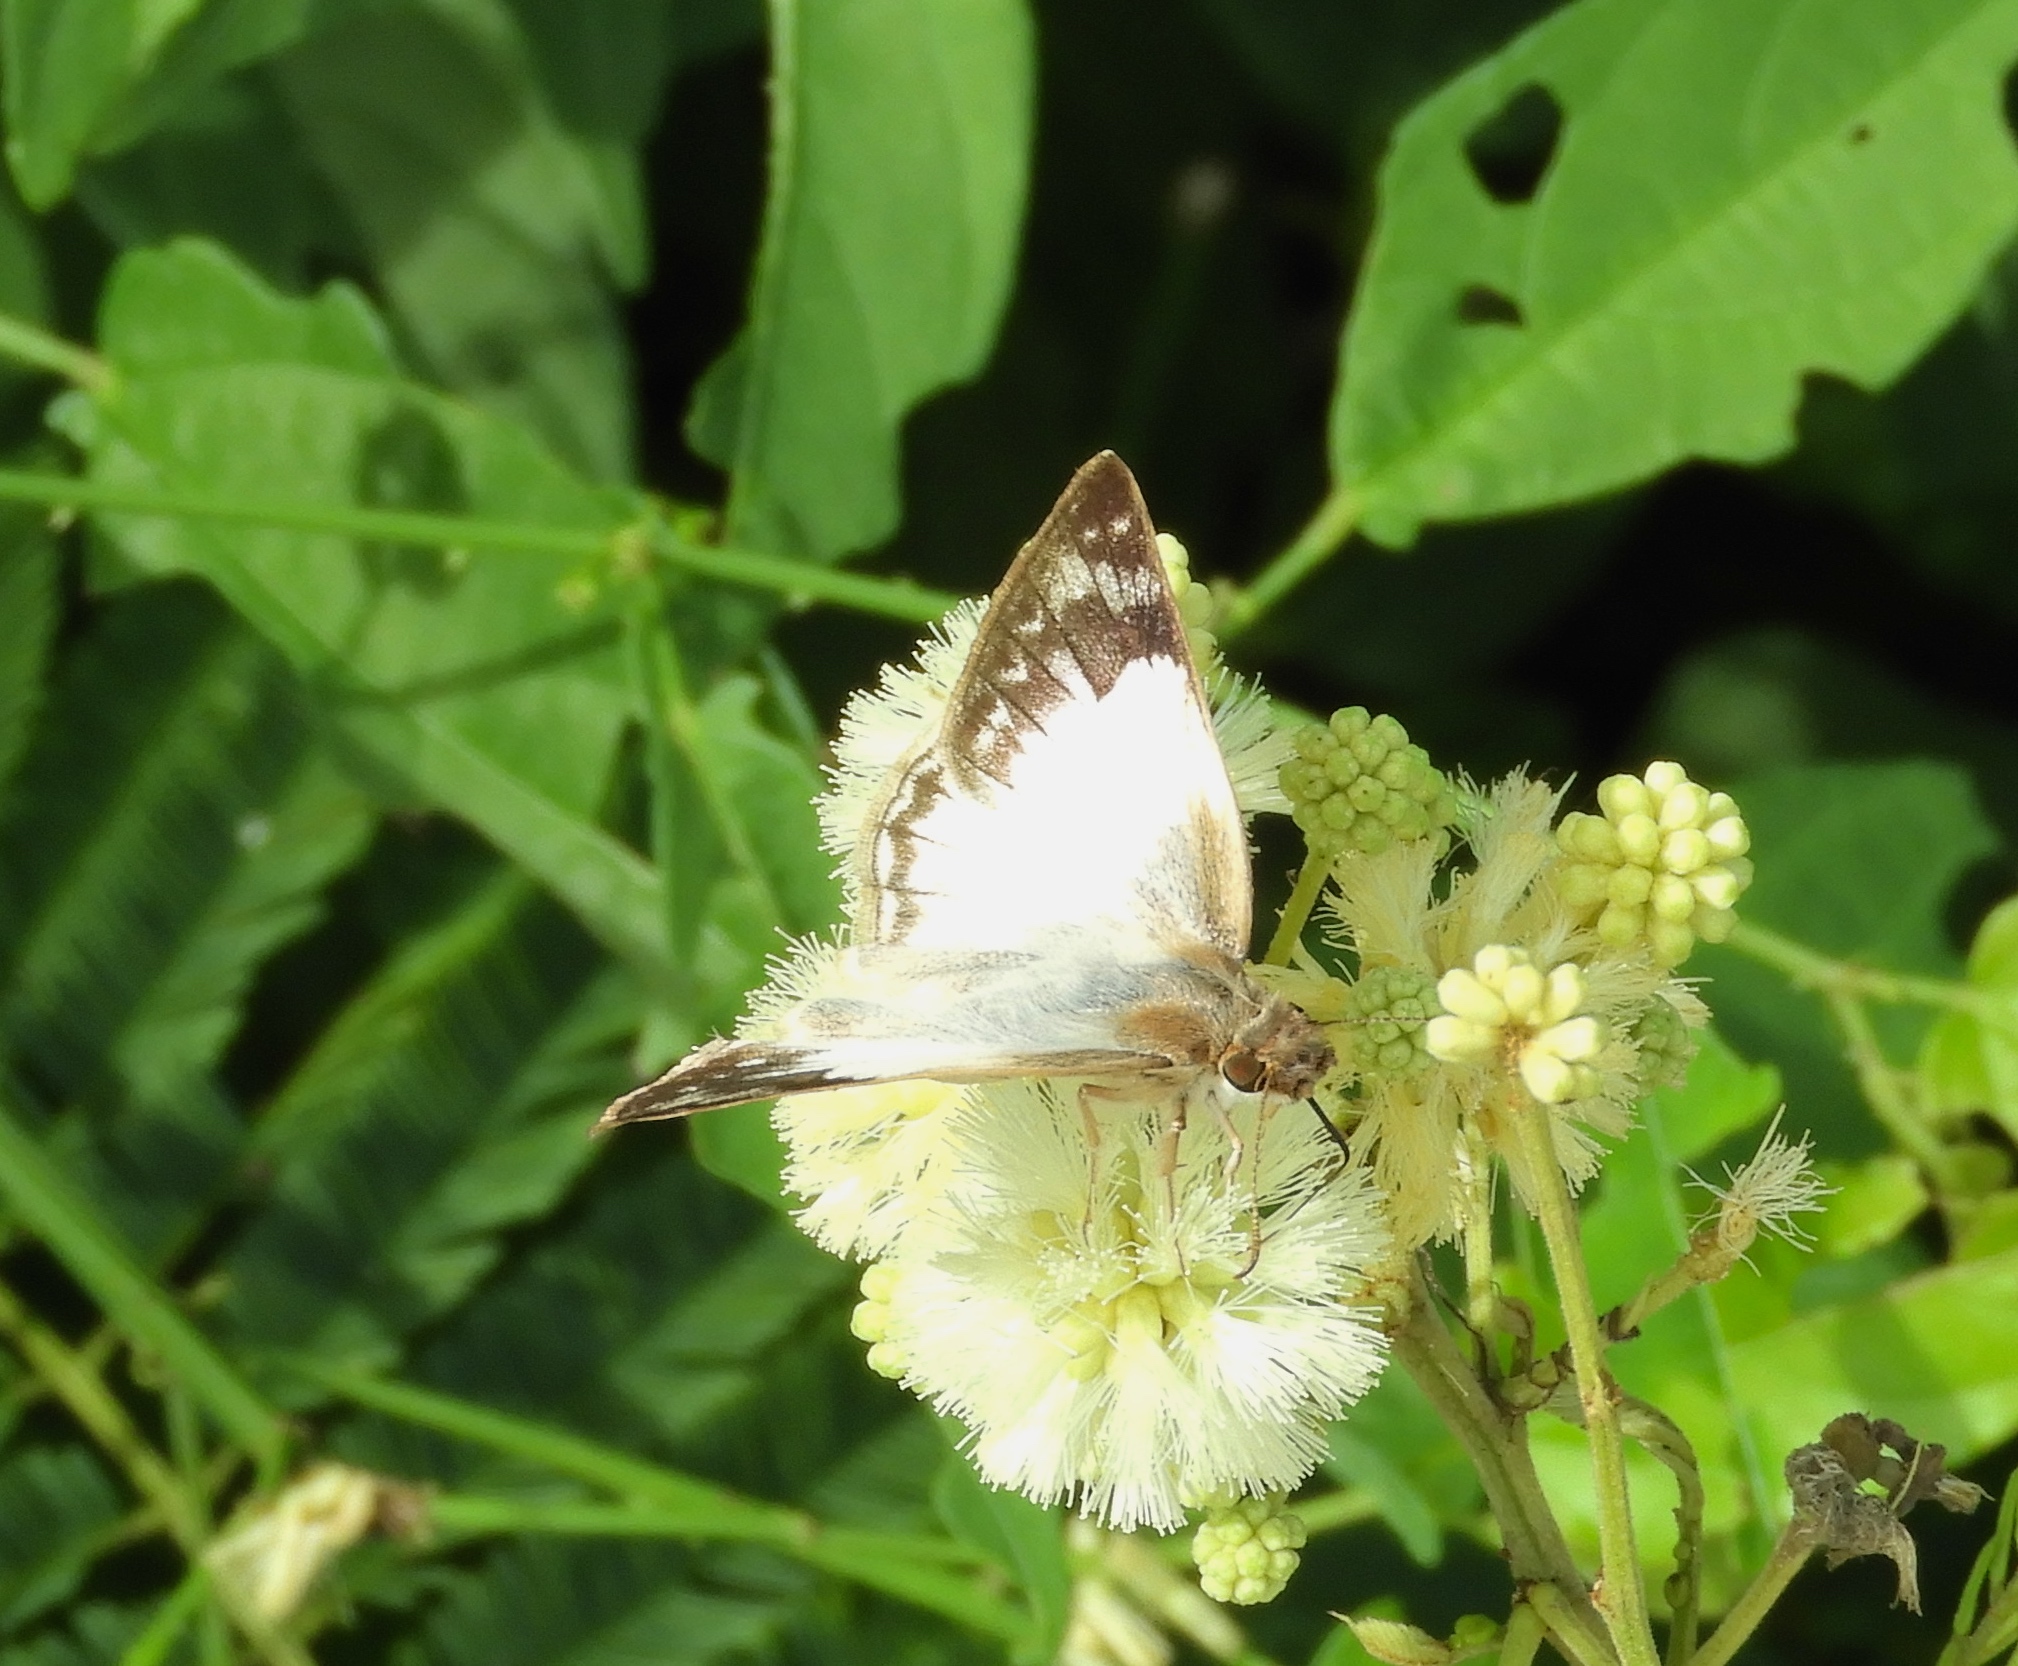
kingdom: Animalia
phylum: Arthropoda
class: Insecta
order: Lepidoptera
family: Hesperiidae
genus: Heliopetes
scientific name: Heliopetes laviana
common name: Laviana white-skipper
